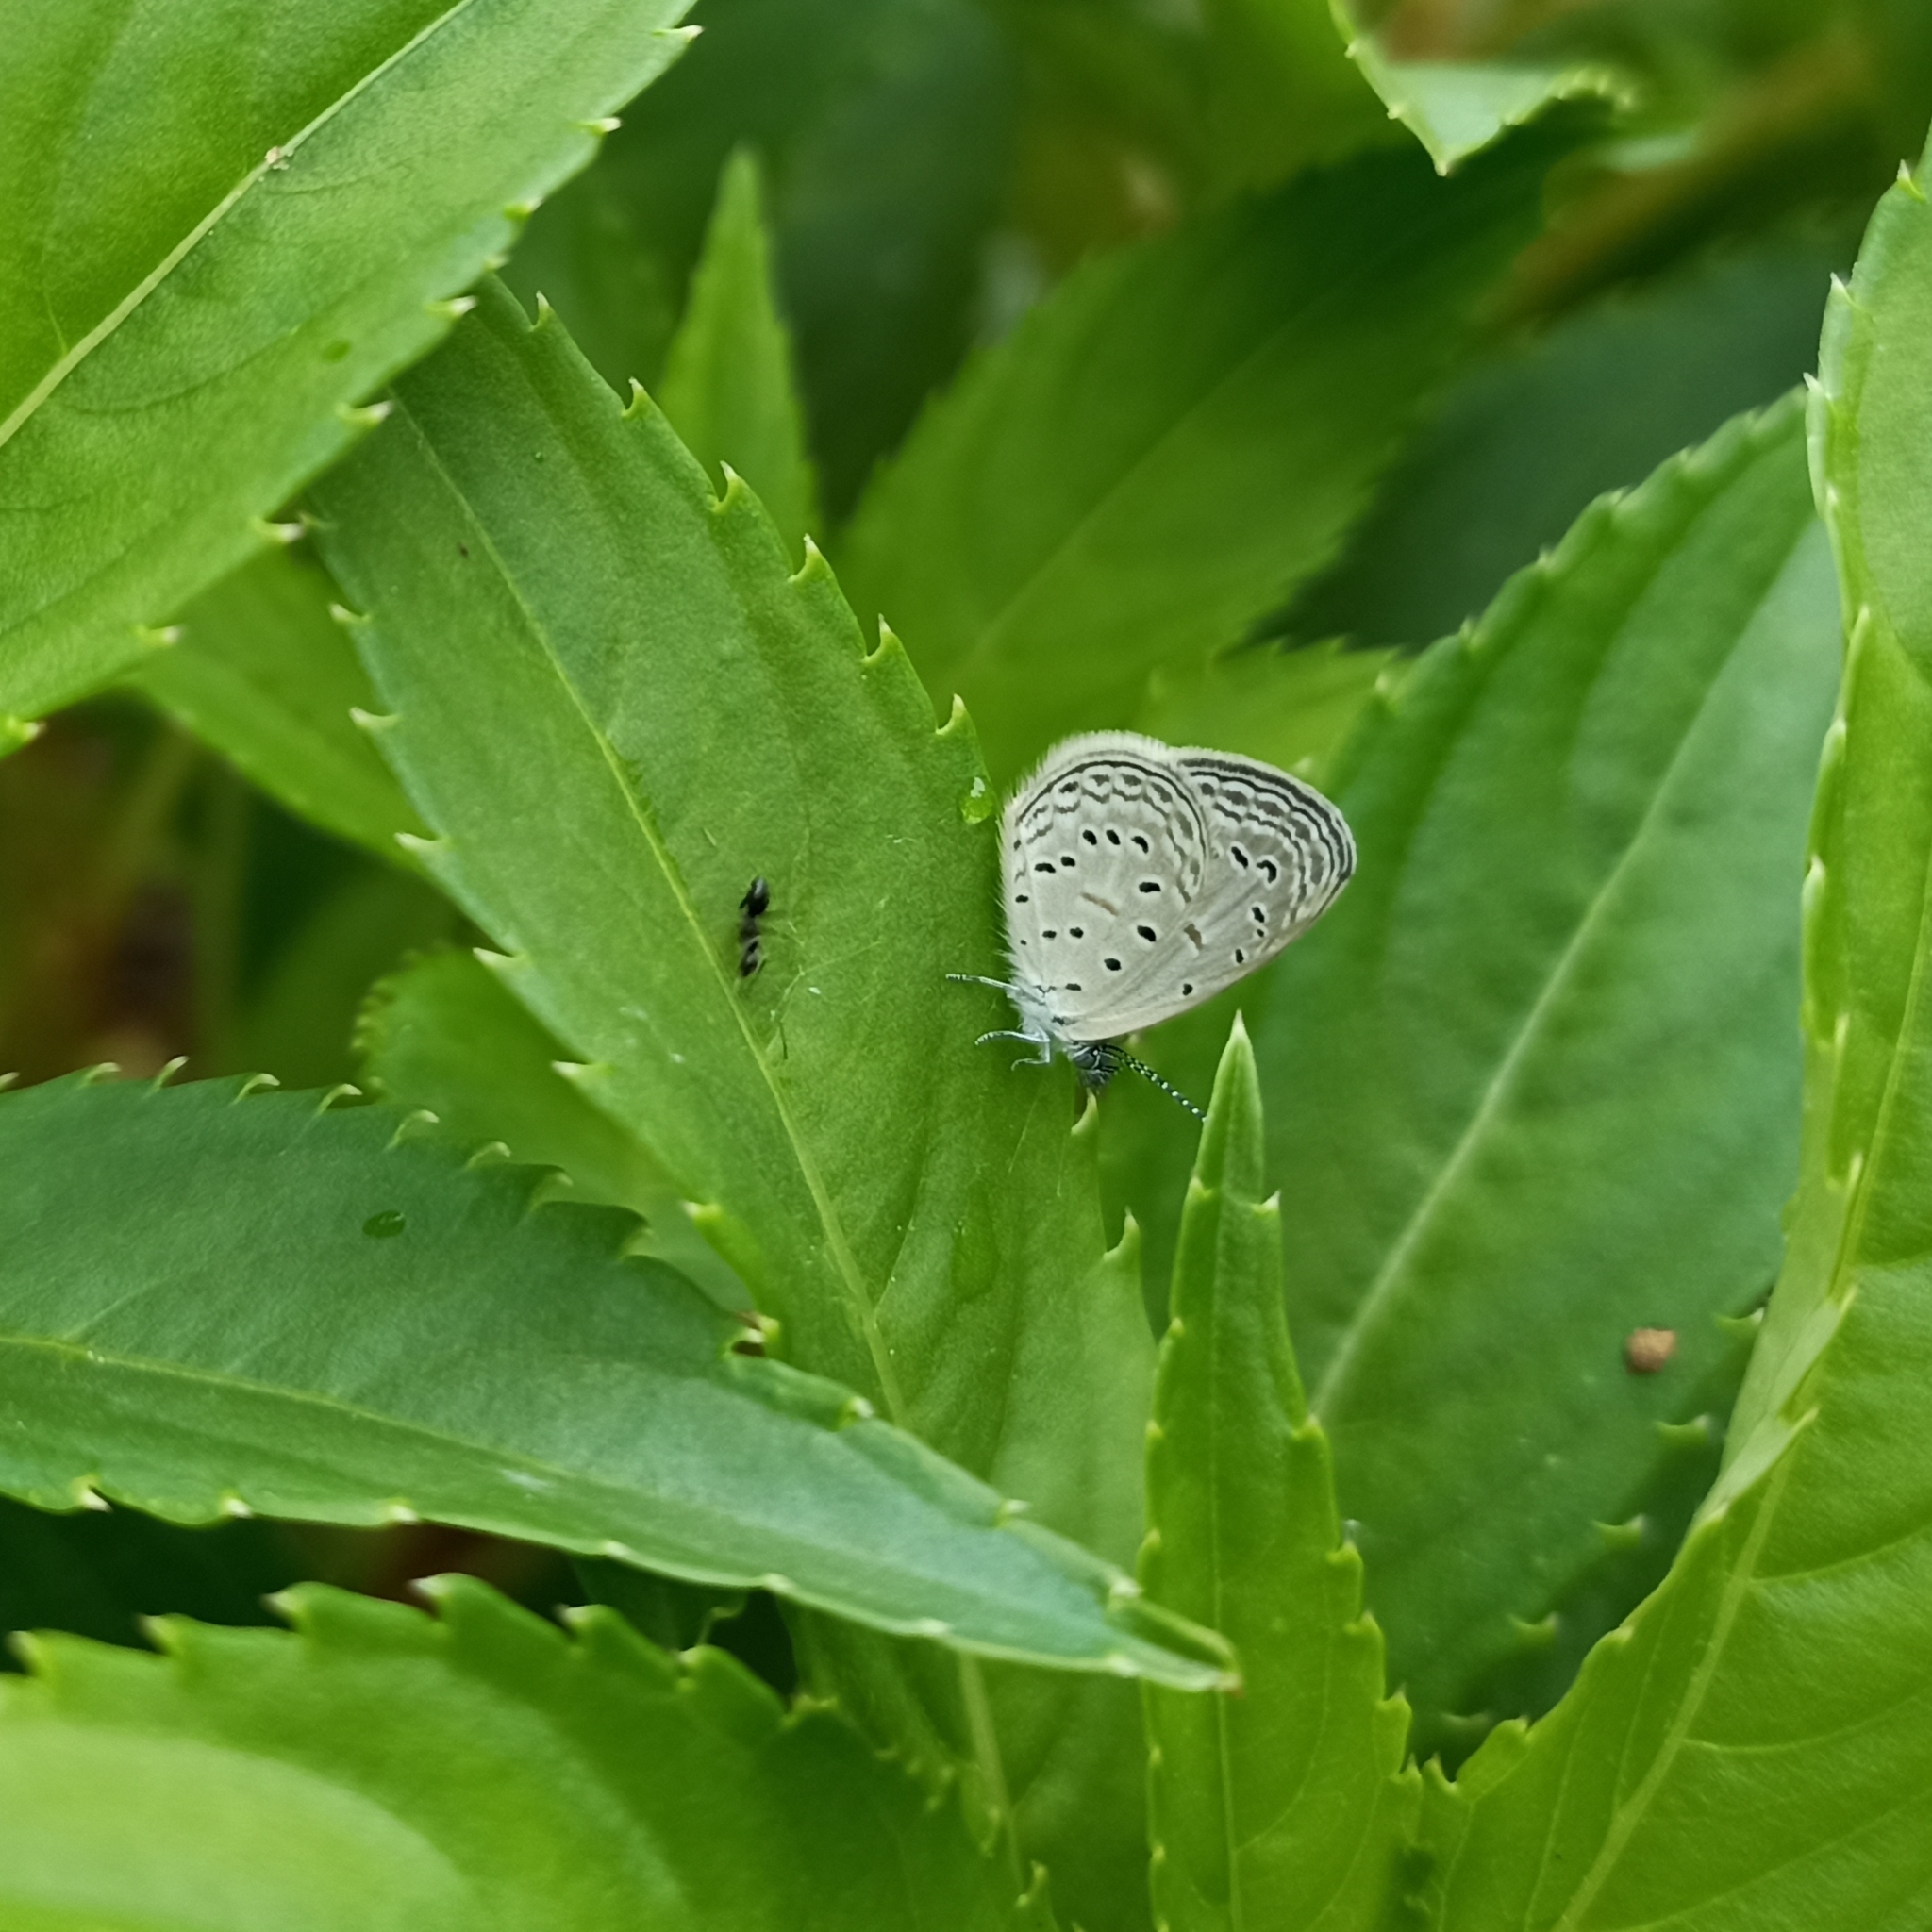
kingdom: Animalia
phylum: Arthropoda
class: Insecta
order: Lepidoptera
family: Lycaenidae
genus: Zizula
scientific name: Zizula hylax
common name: Gaika blue
